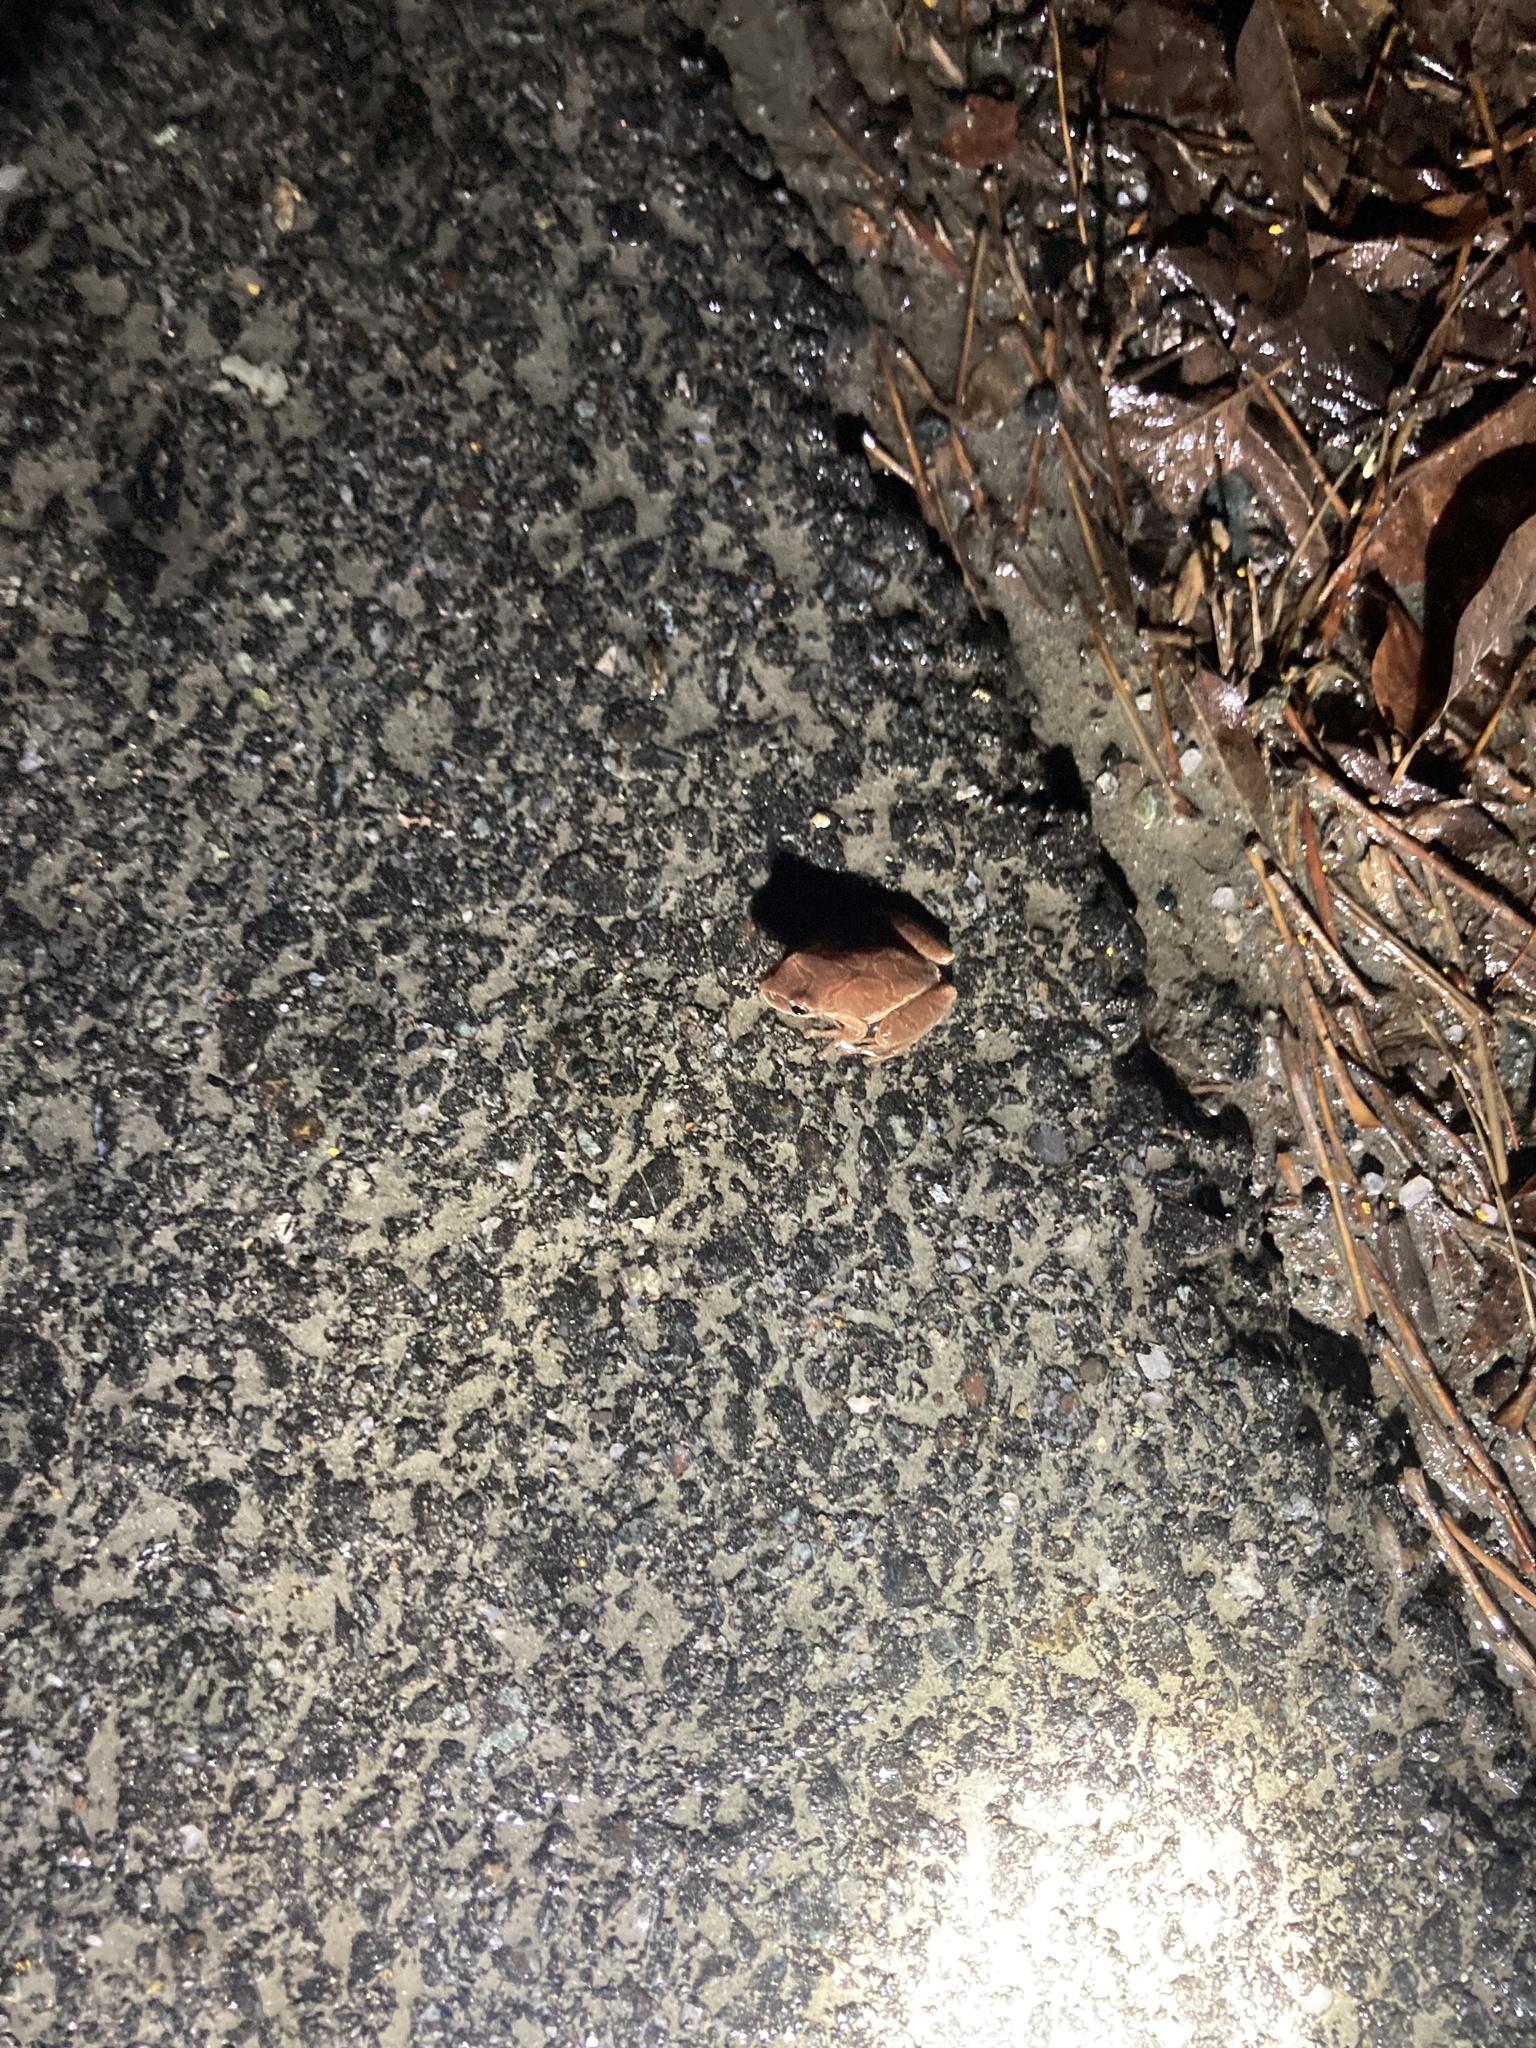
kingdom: Animalia
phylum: Chordata
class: Amphibia
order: Anura
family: Hylidae
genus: Pseudacris
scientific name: Pseudacris crucifer
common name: Spring peeper
